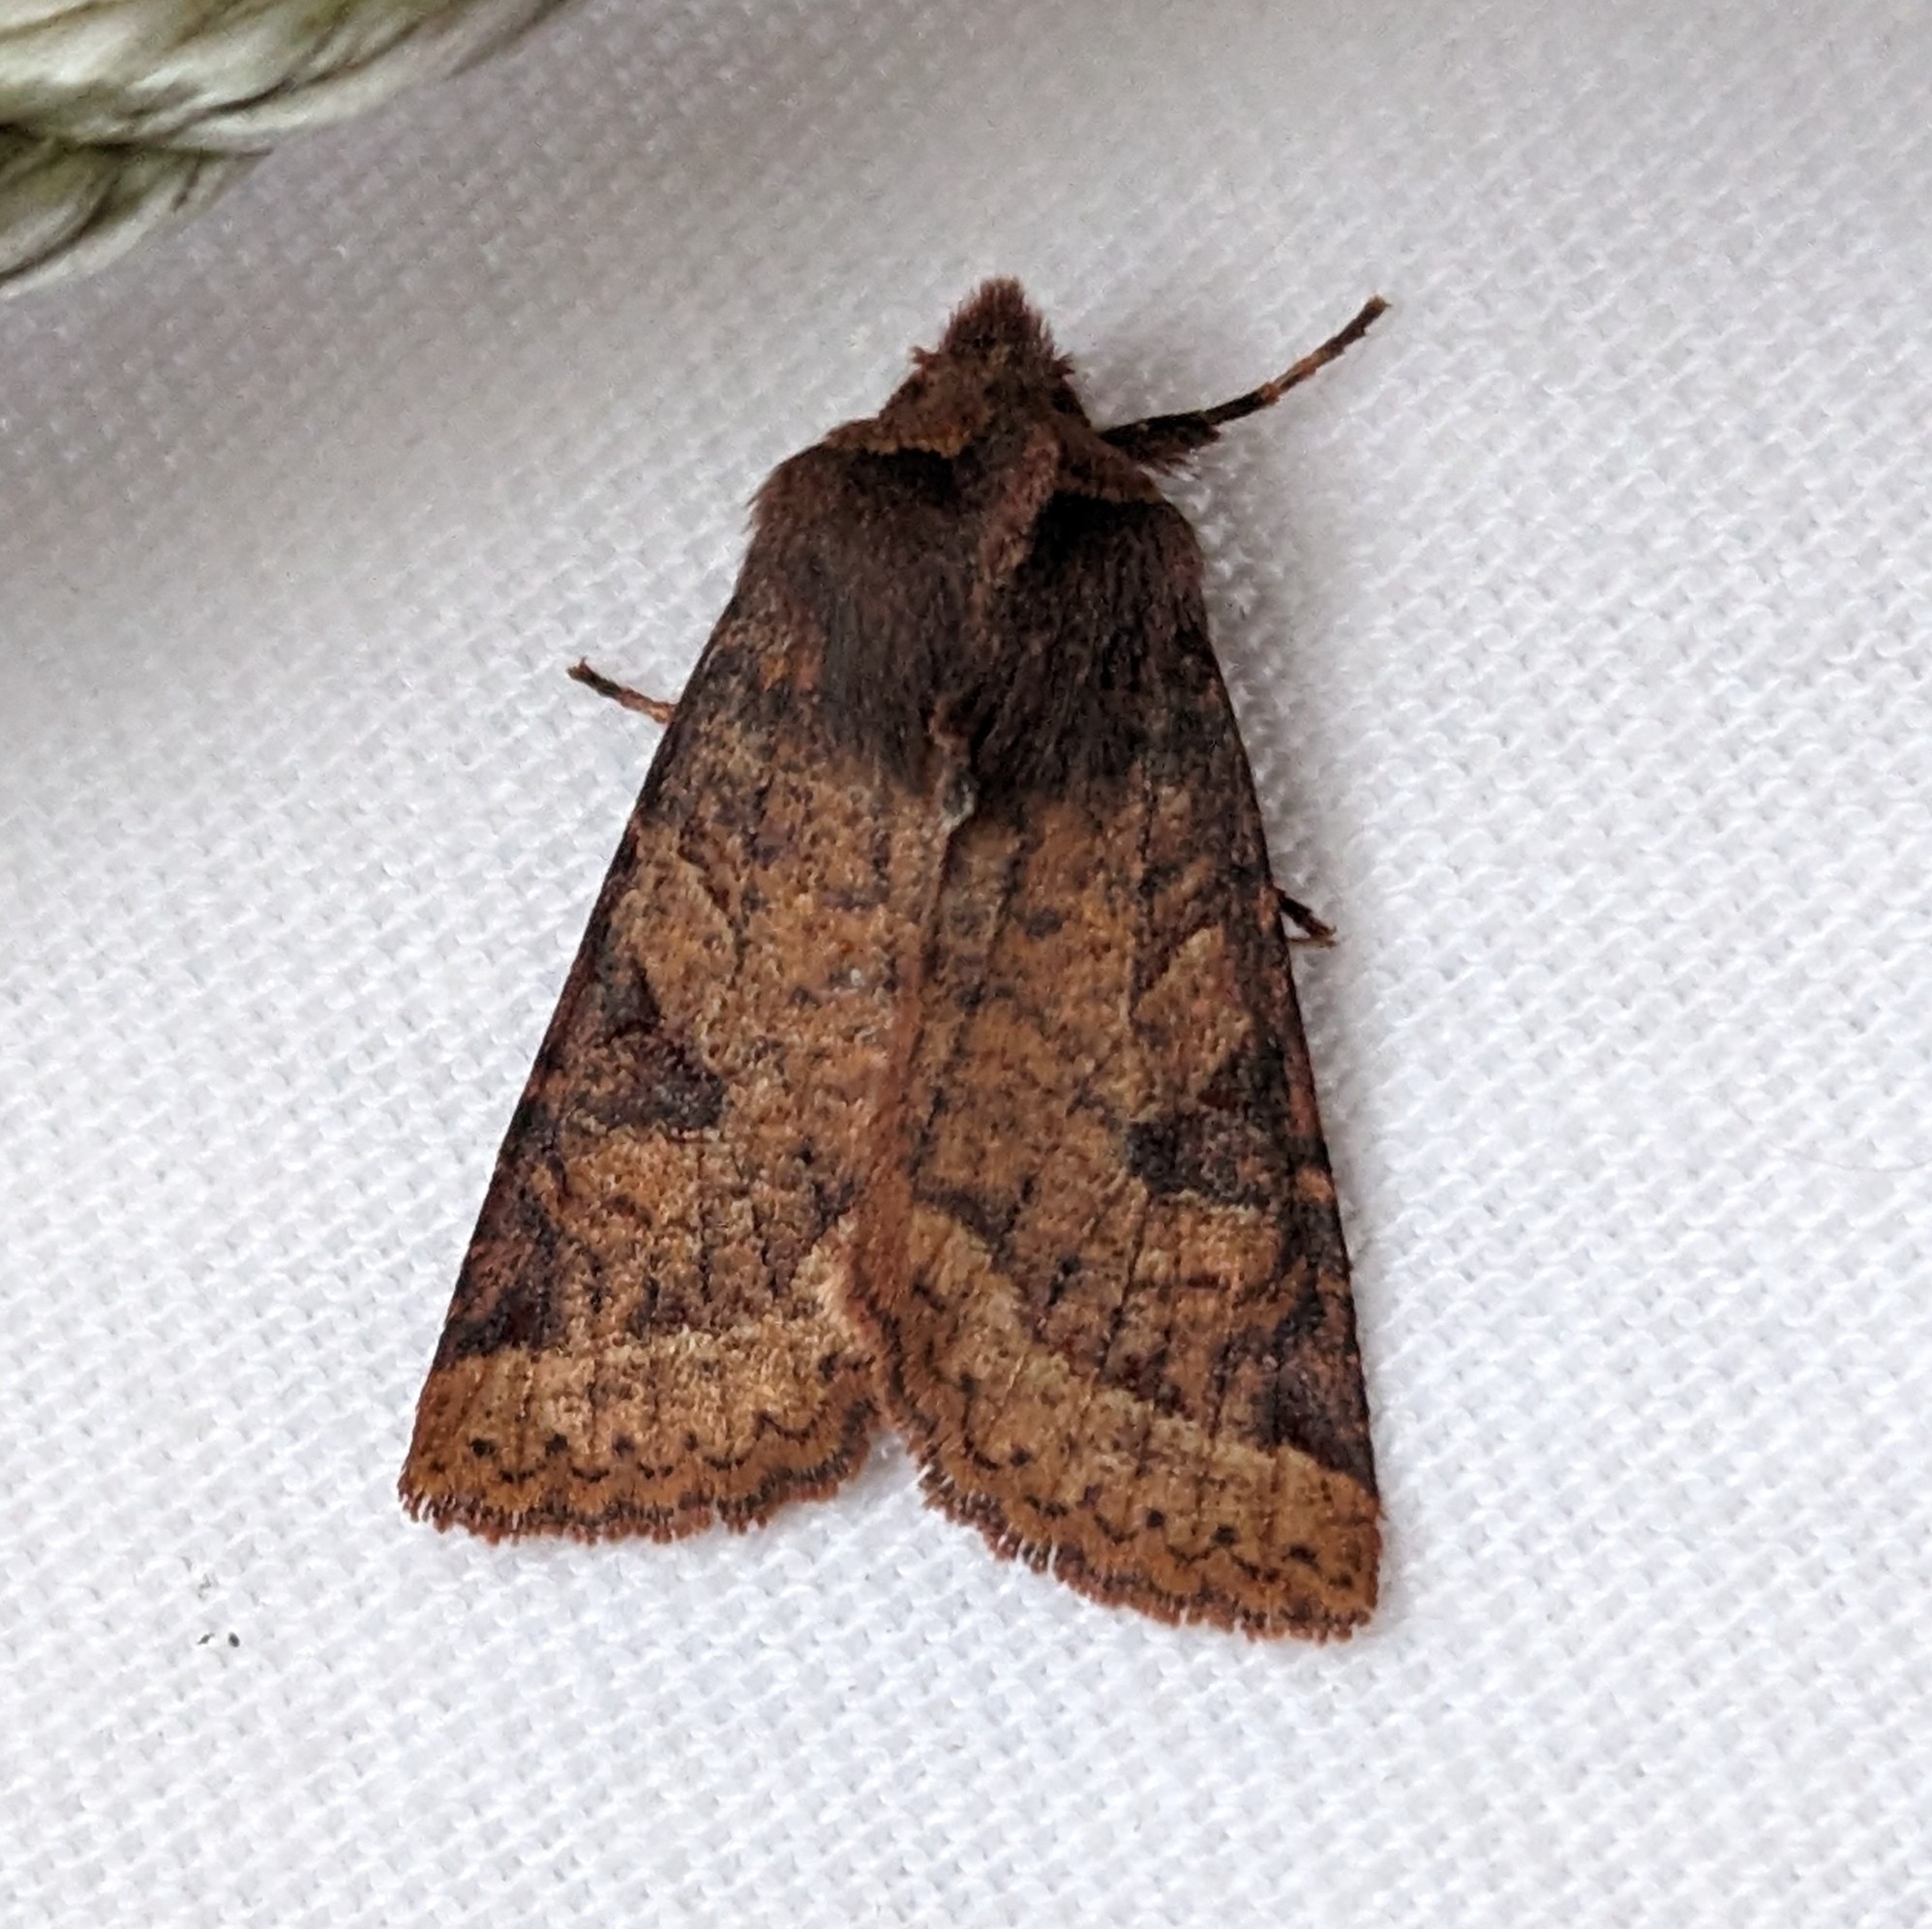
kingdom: Animalia
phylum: Arthropoda
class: Insecta
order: Lepidoptera
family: Noctuidae
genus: Orthosia
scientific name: Orthosia praeses
